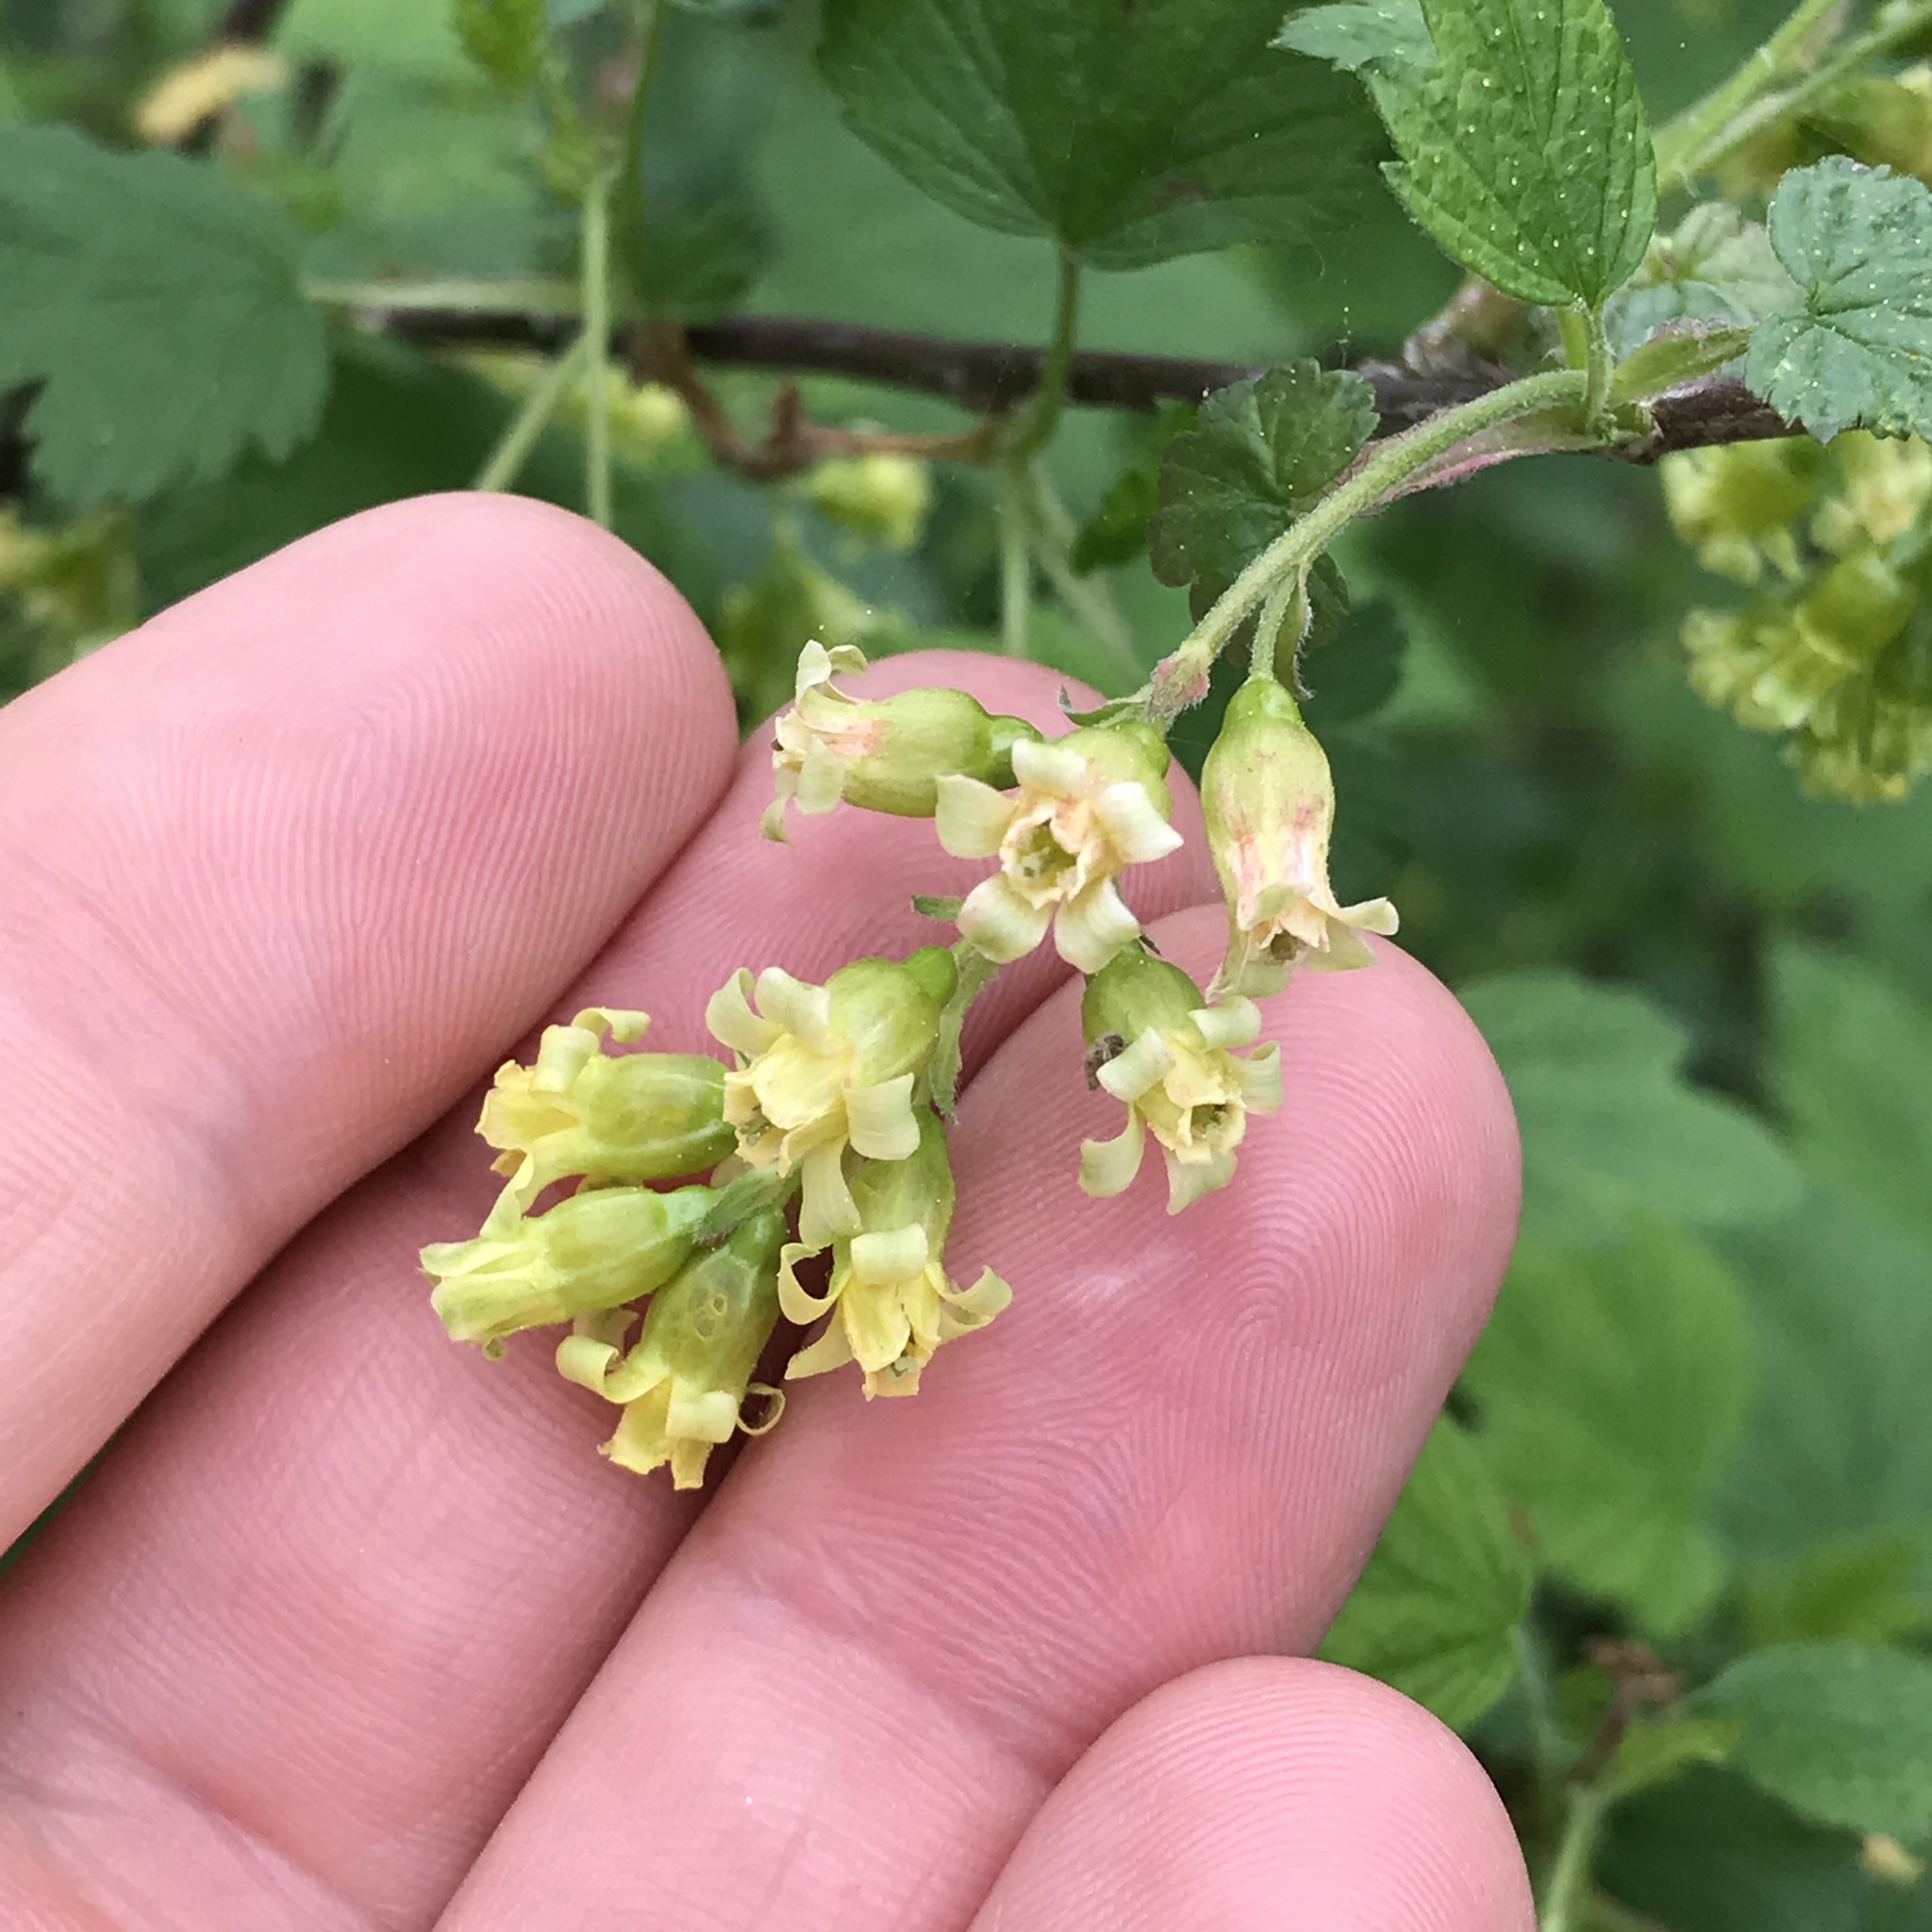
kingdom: Plantae
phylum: Tracheophyta
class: Magnoliopsida
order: Saxifragales
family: Grossulariaceae
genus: Ribes
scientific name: Ribes americanum
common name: American black currant
